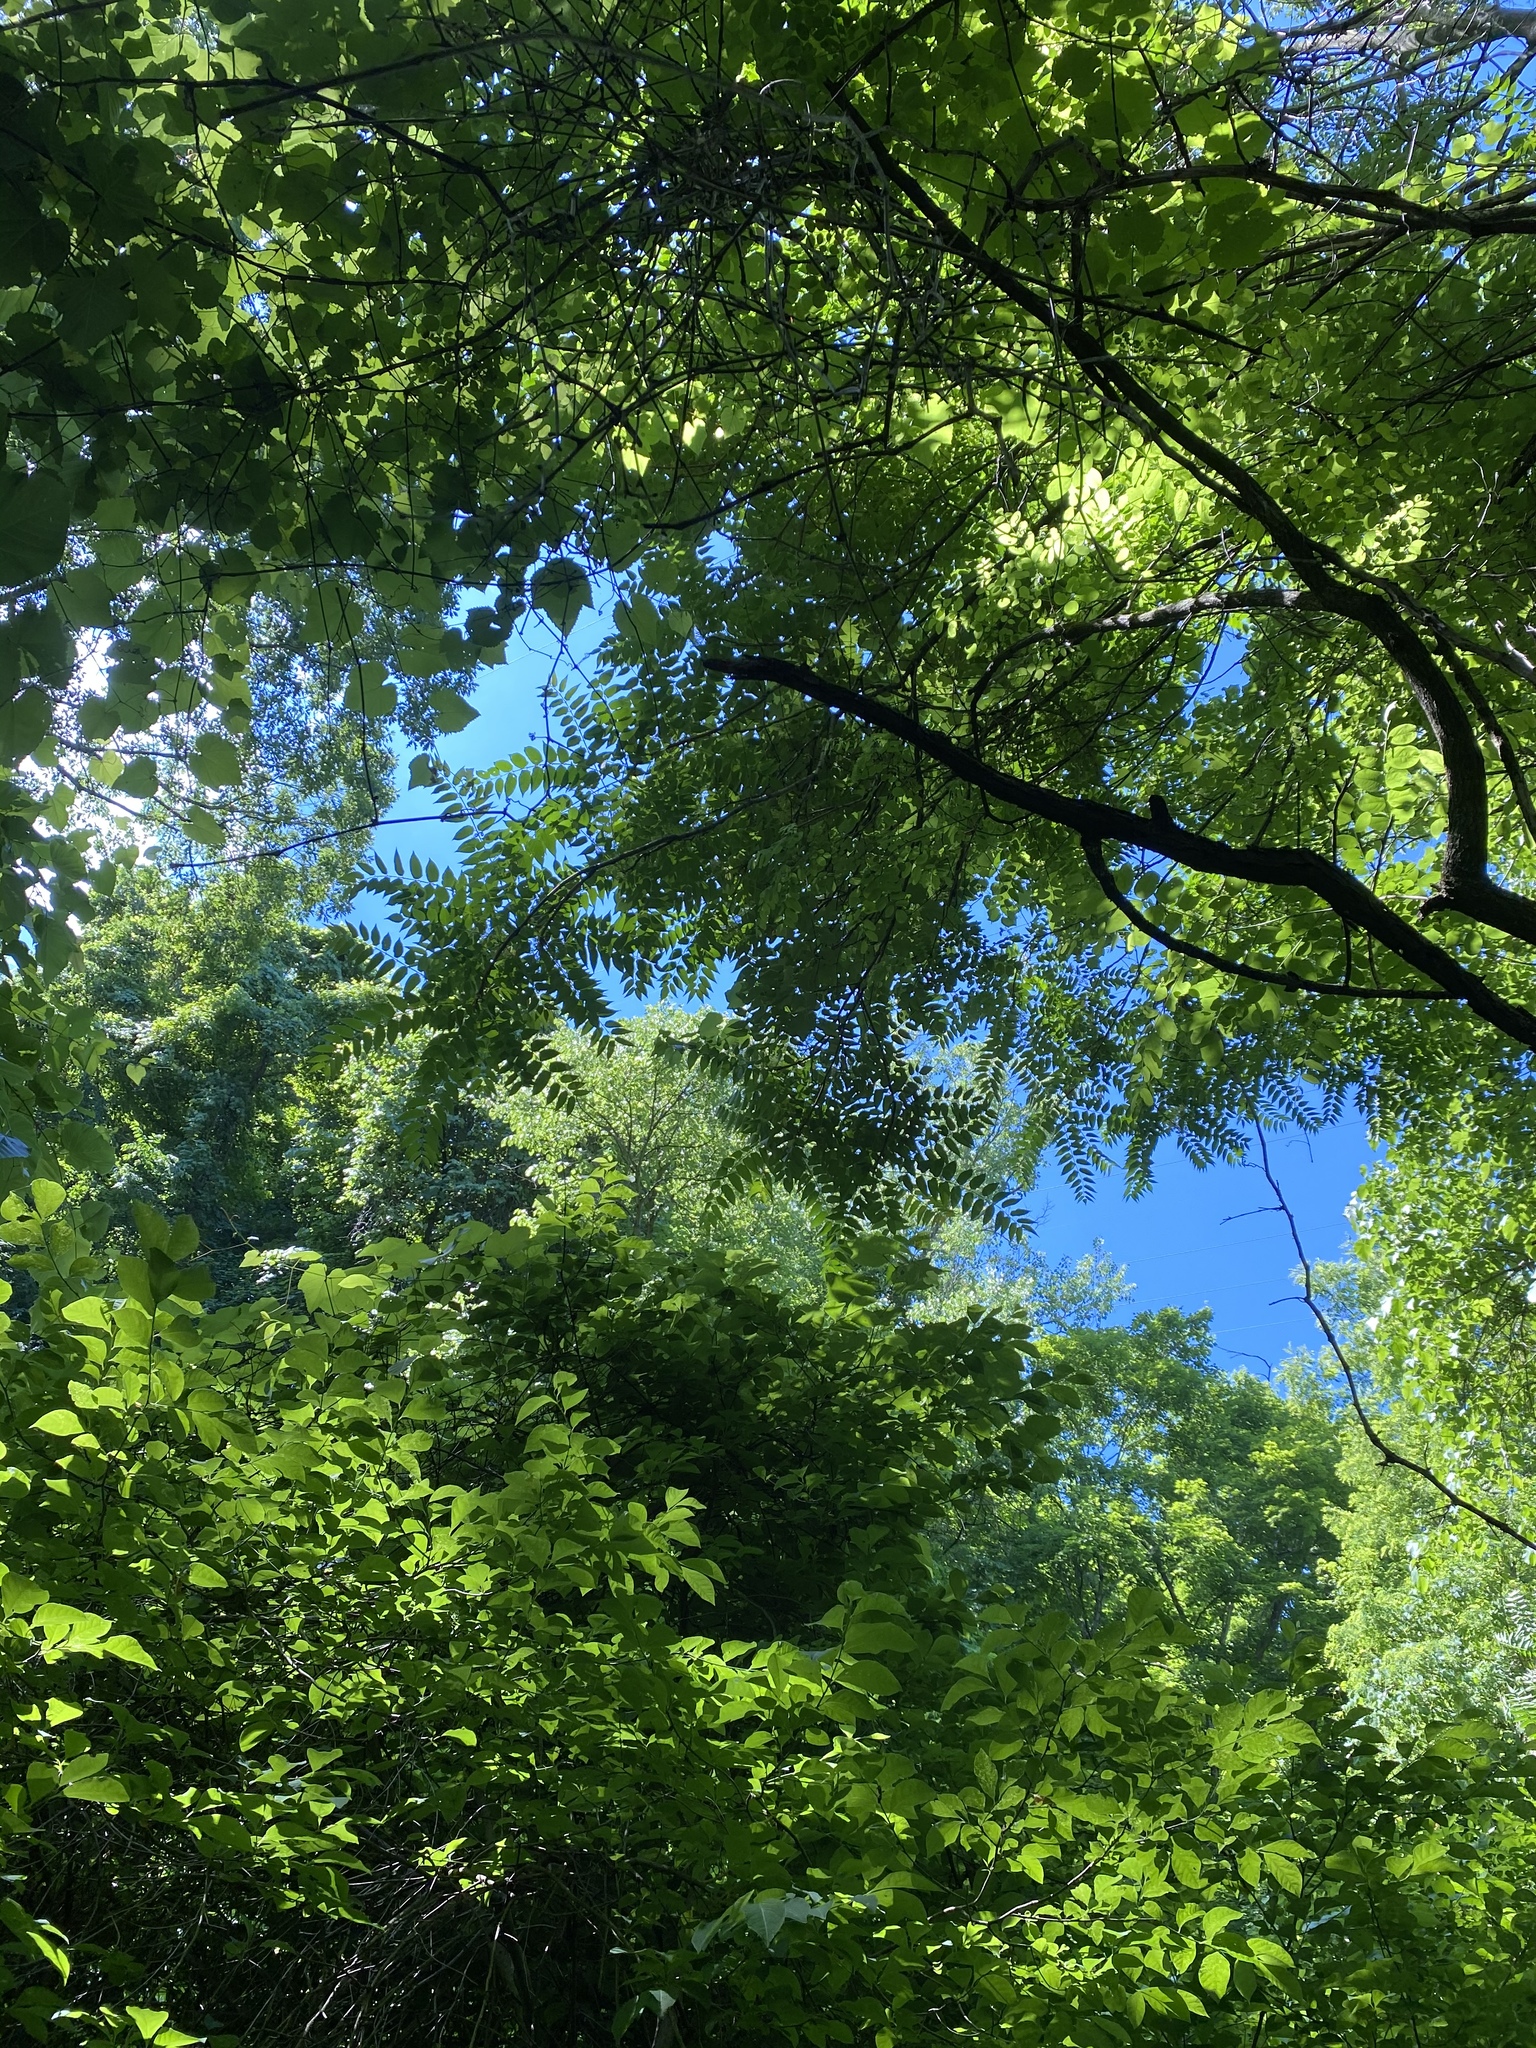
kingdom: Plantae
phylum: Tracheophyta
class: Magnoliopsida
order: Sapindales
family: Simaroubaceae
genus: Ailanthus
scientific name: Ailanthus altissima
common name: Tree-of-heaven
